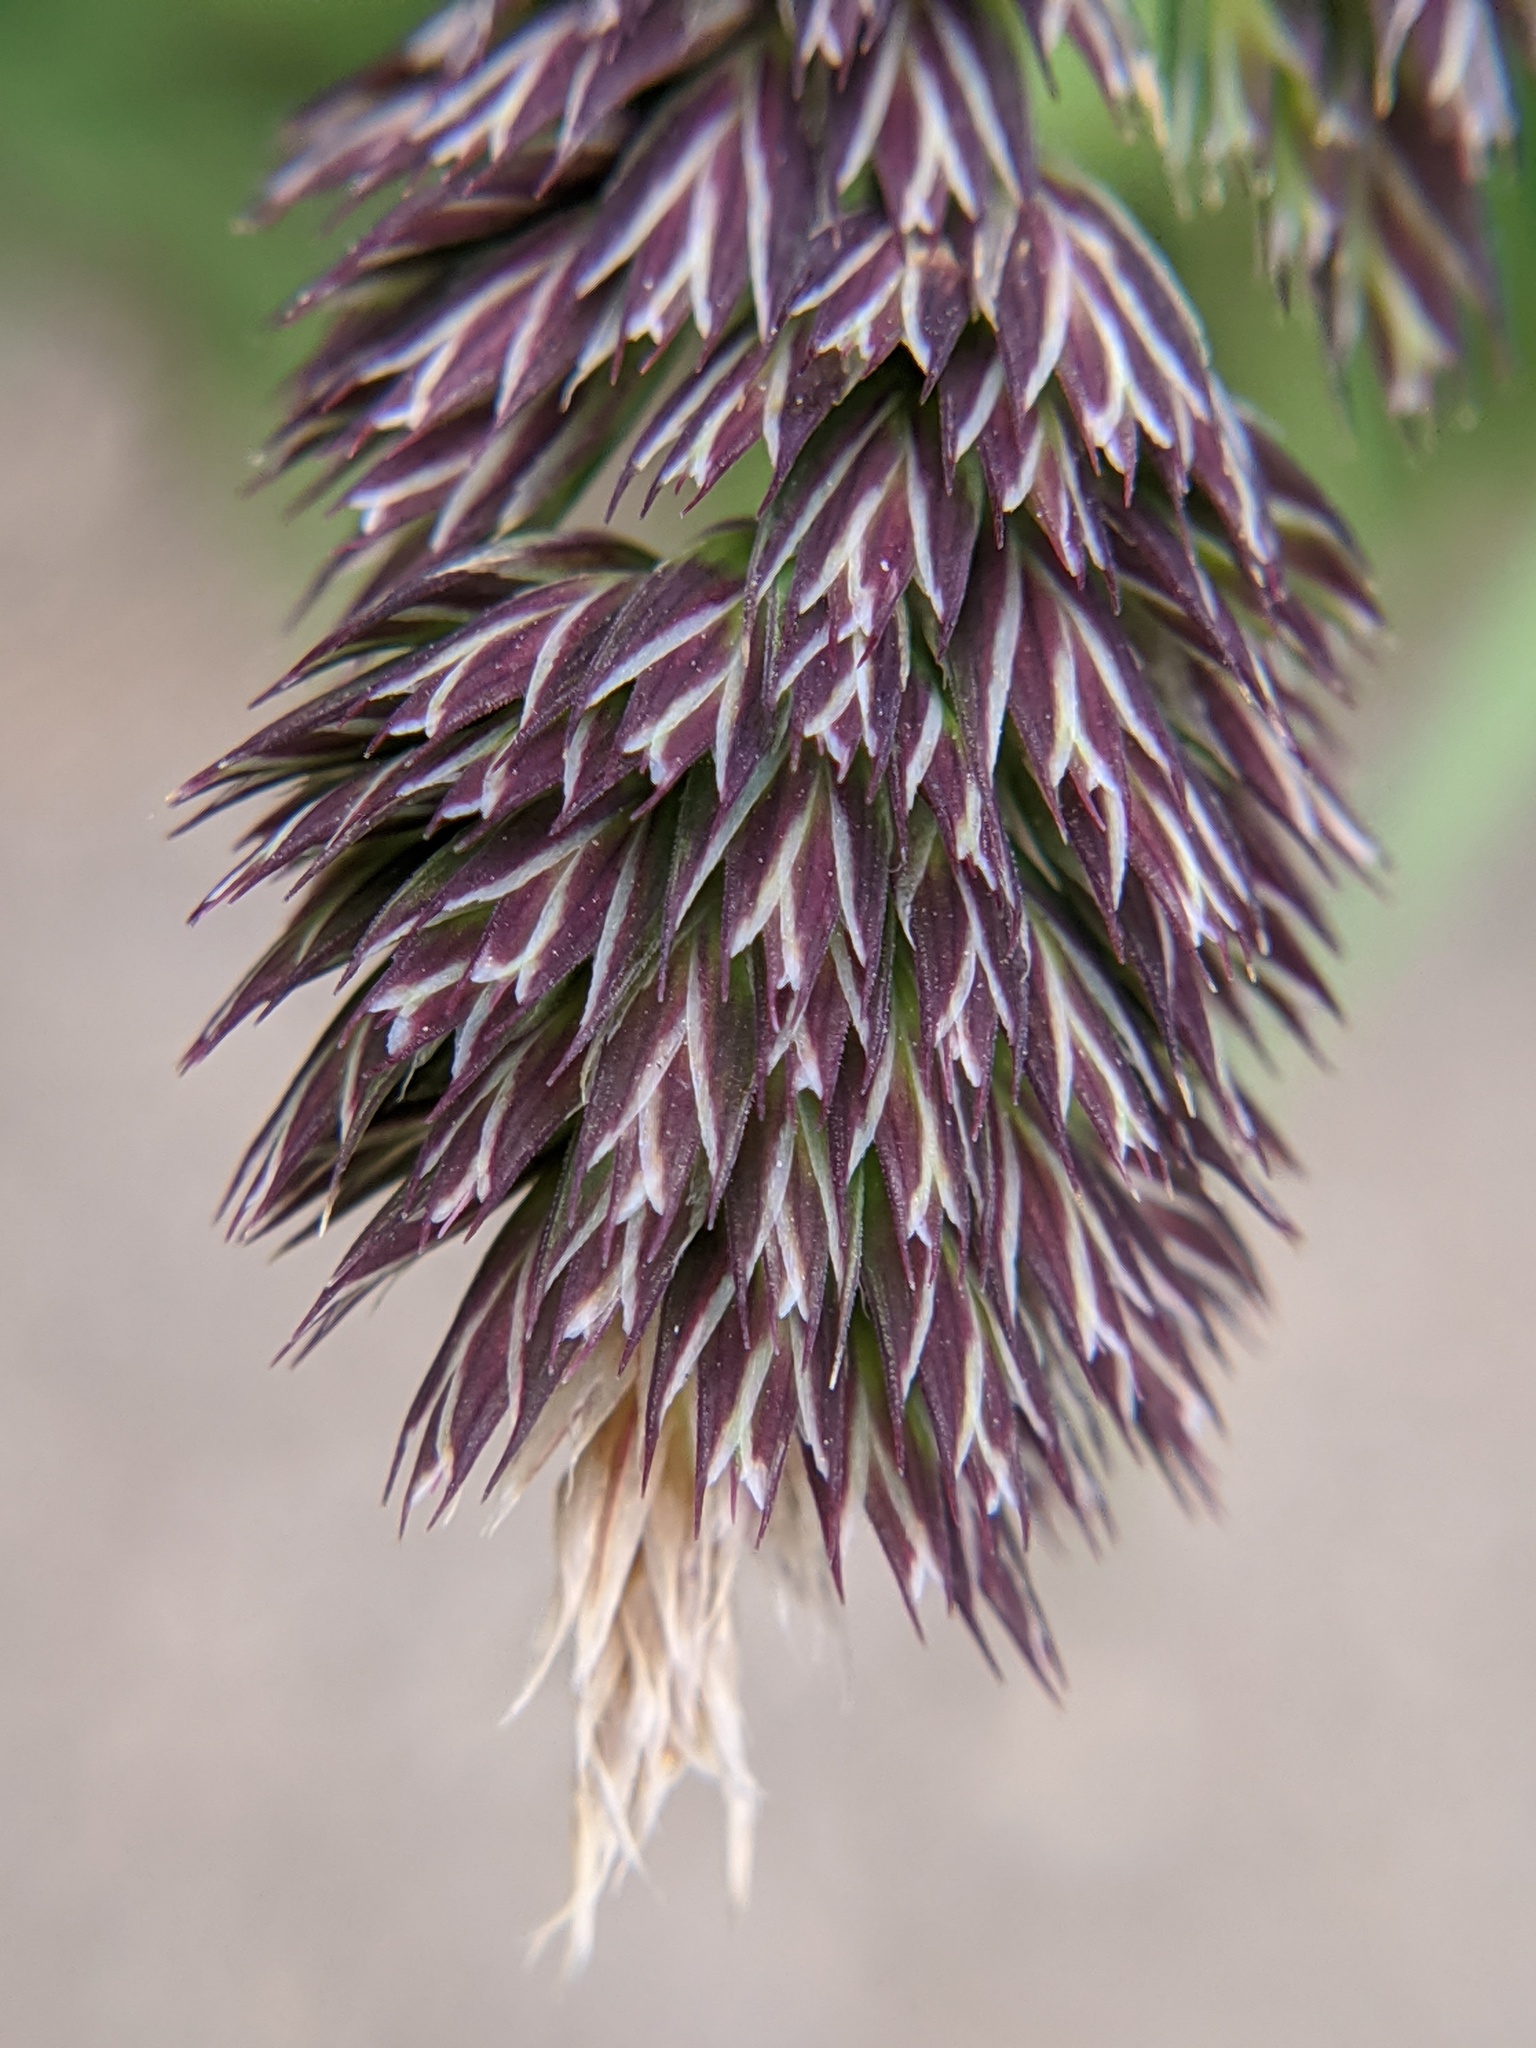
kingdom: Plantae
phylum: Tracheophyta
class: Liliopsida
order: Poales
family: Poaceae
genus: Dactylis
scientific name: Dactylis glomerata
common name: Orchardgrass
